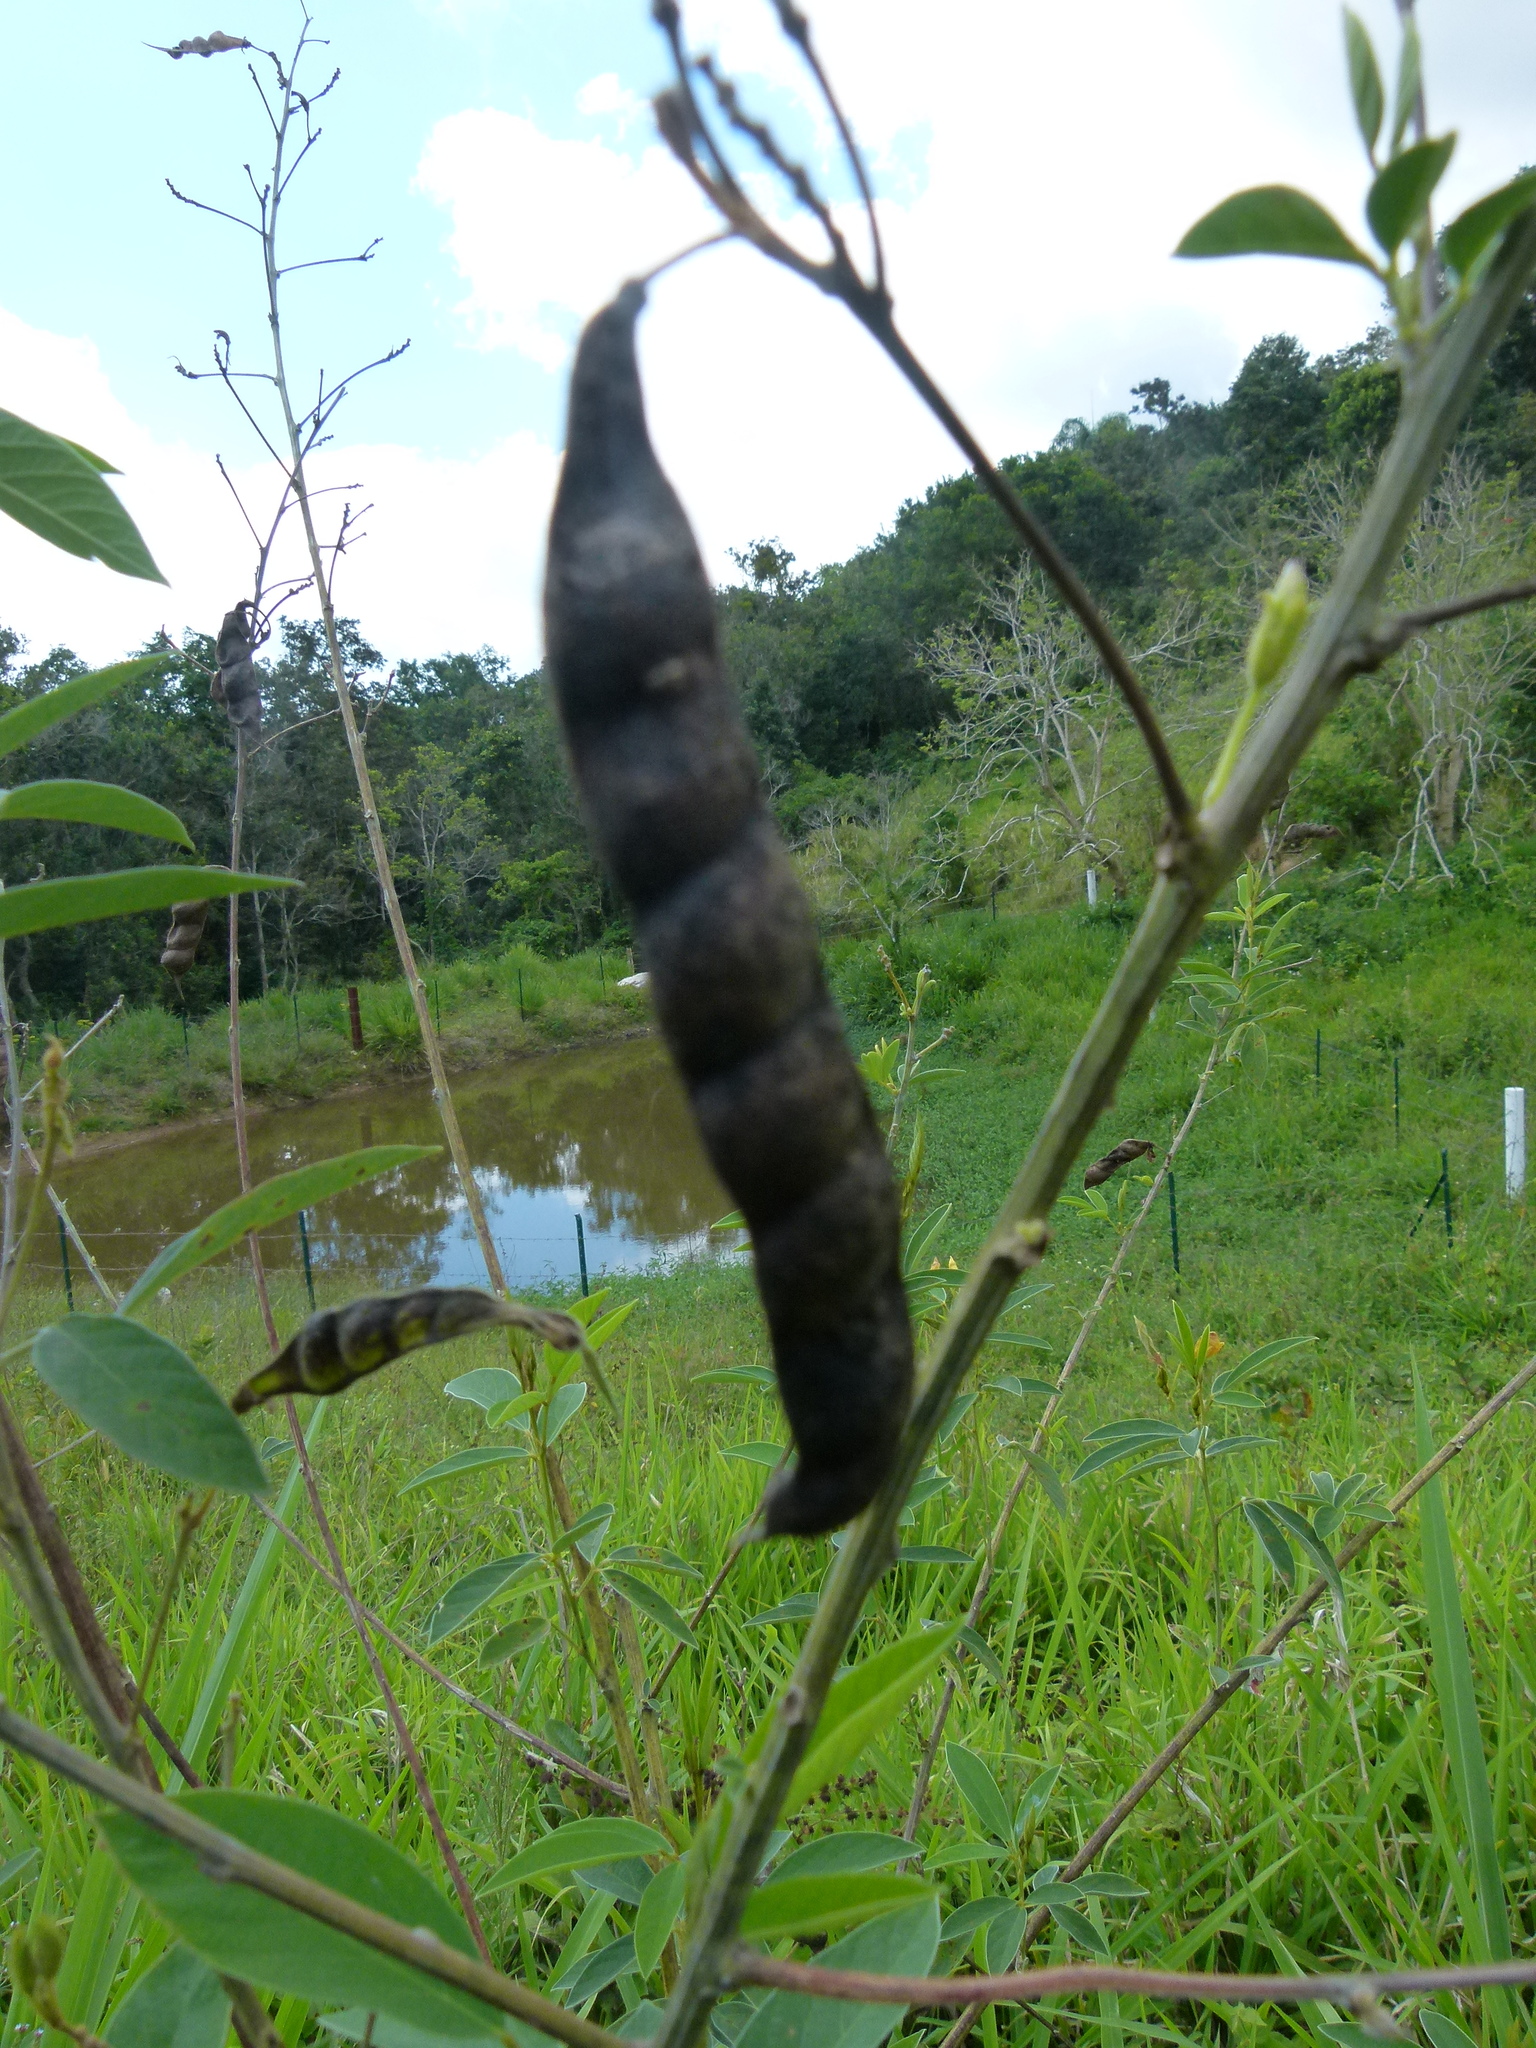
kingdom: Plantae
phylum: Tracheophyta
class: Magnoliopsida
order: Fabales
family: Fabaceae
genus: Cajanus
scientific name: Cajanus cajan
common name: Pigeonpea
